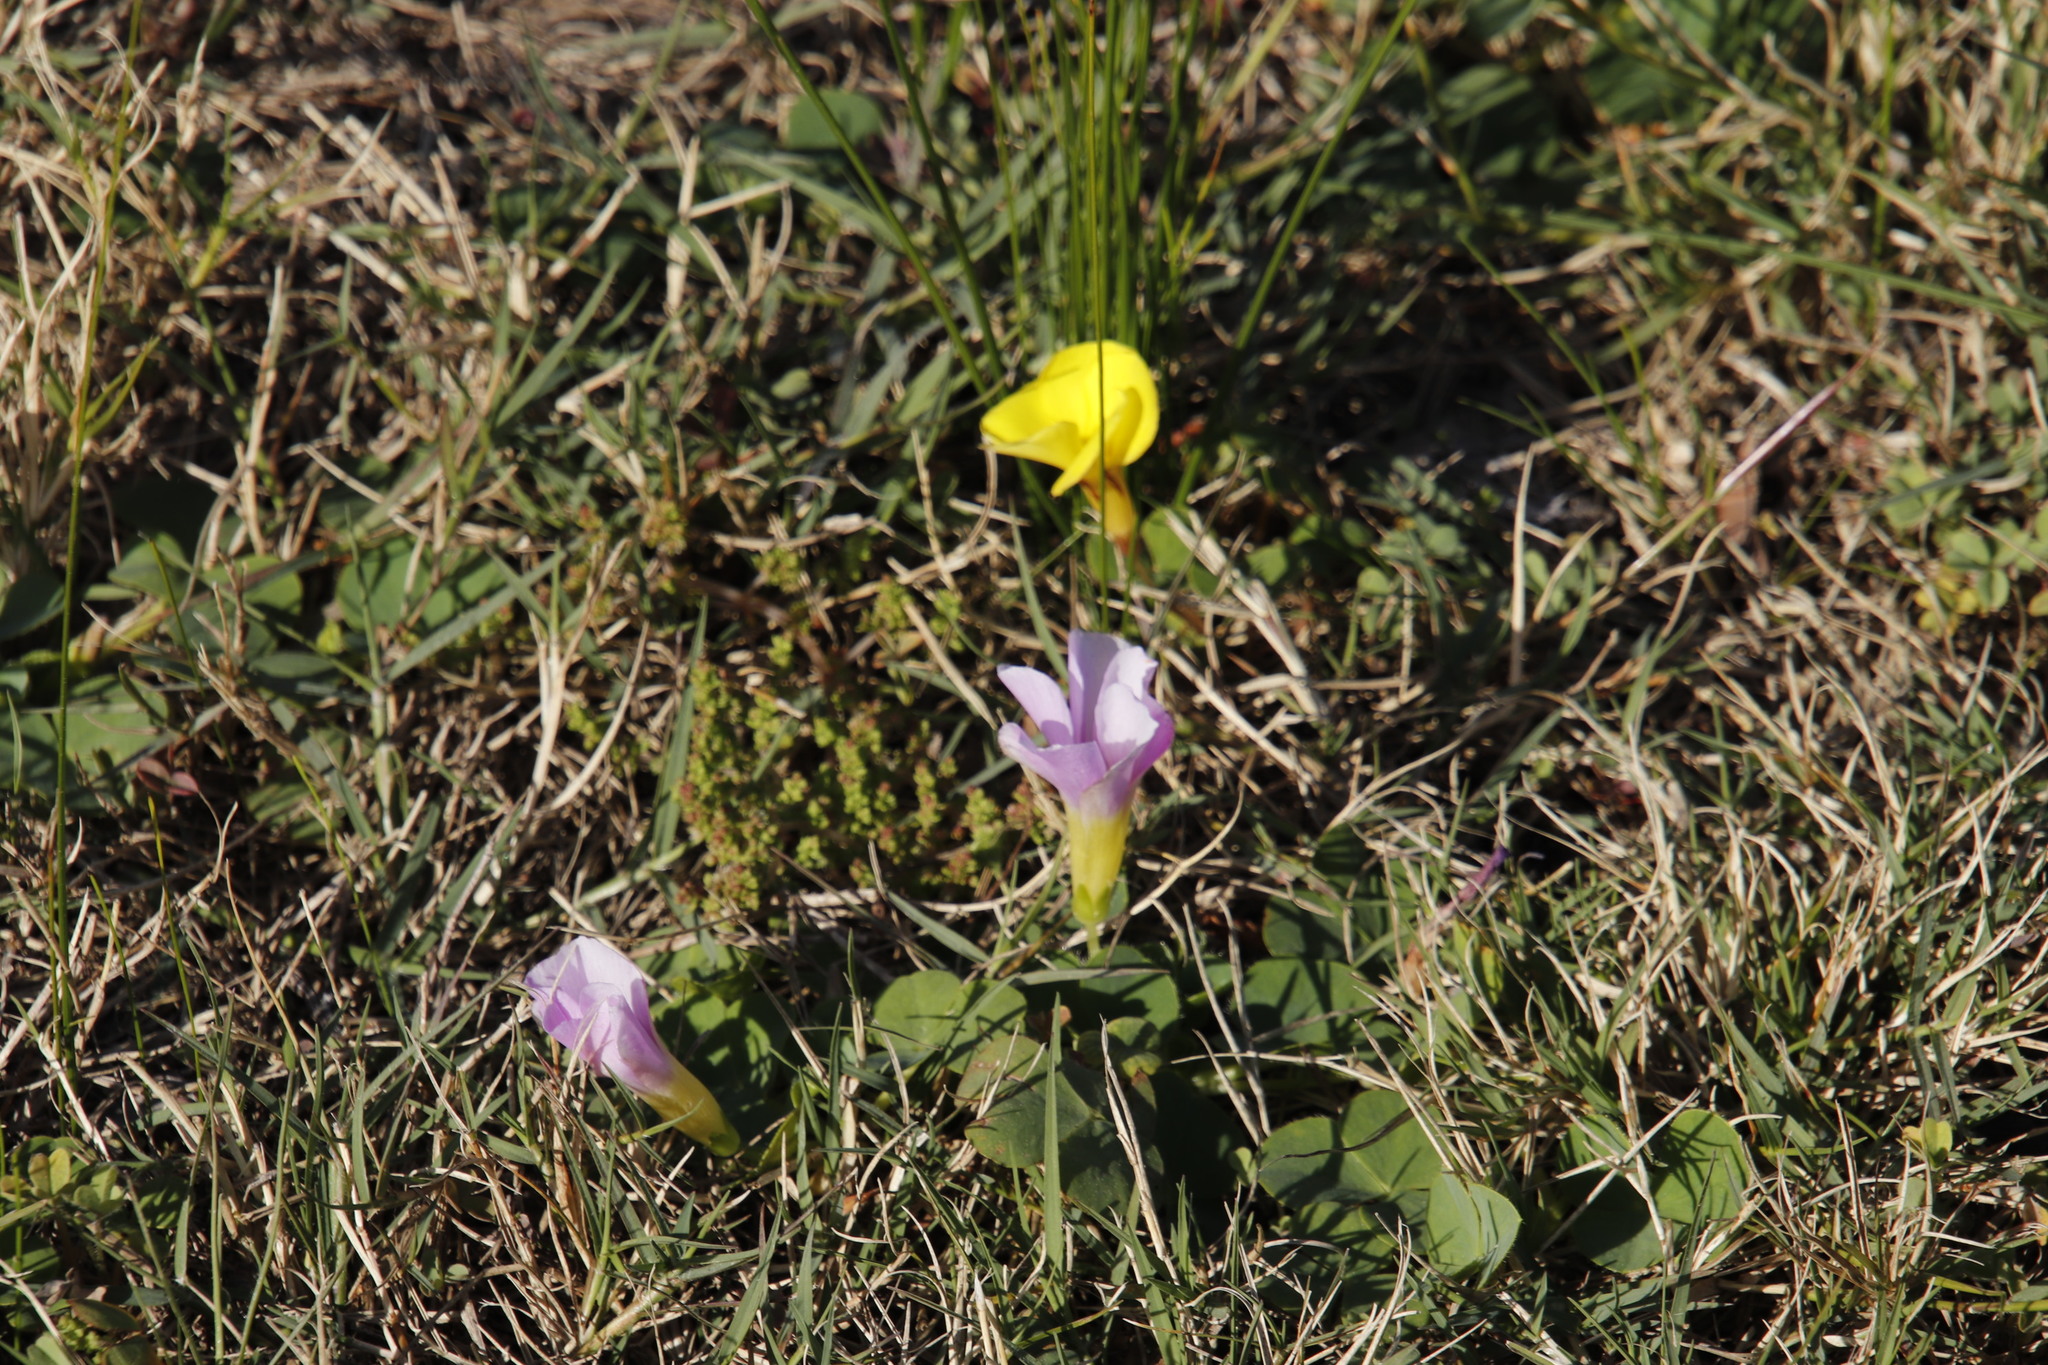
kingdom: Plantae
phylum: Tracheophyta
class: Magnoliopsida
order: Oxalidales
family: Oxalidaceae
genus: Oxalis
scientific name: Oxalis luteola
